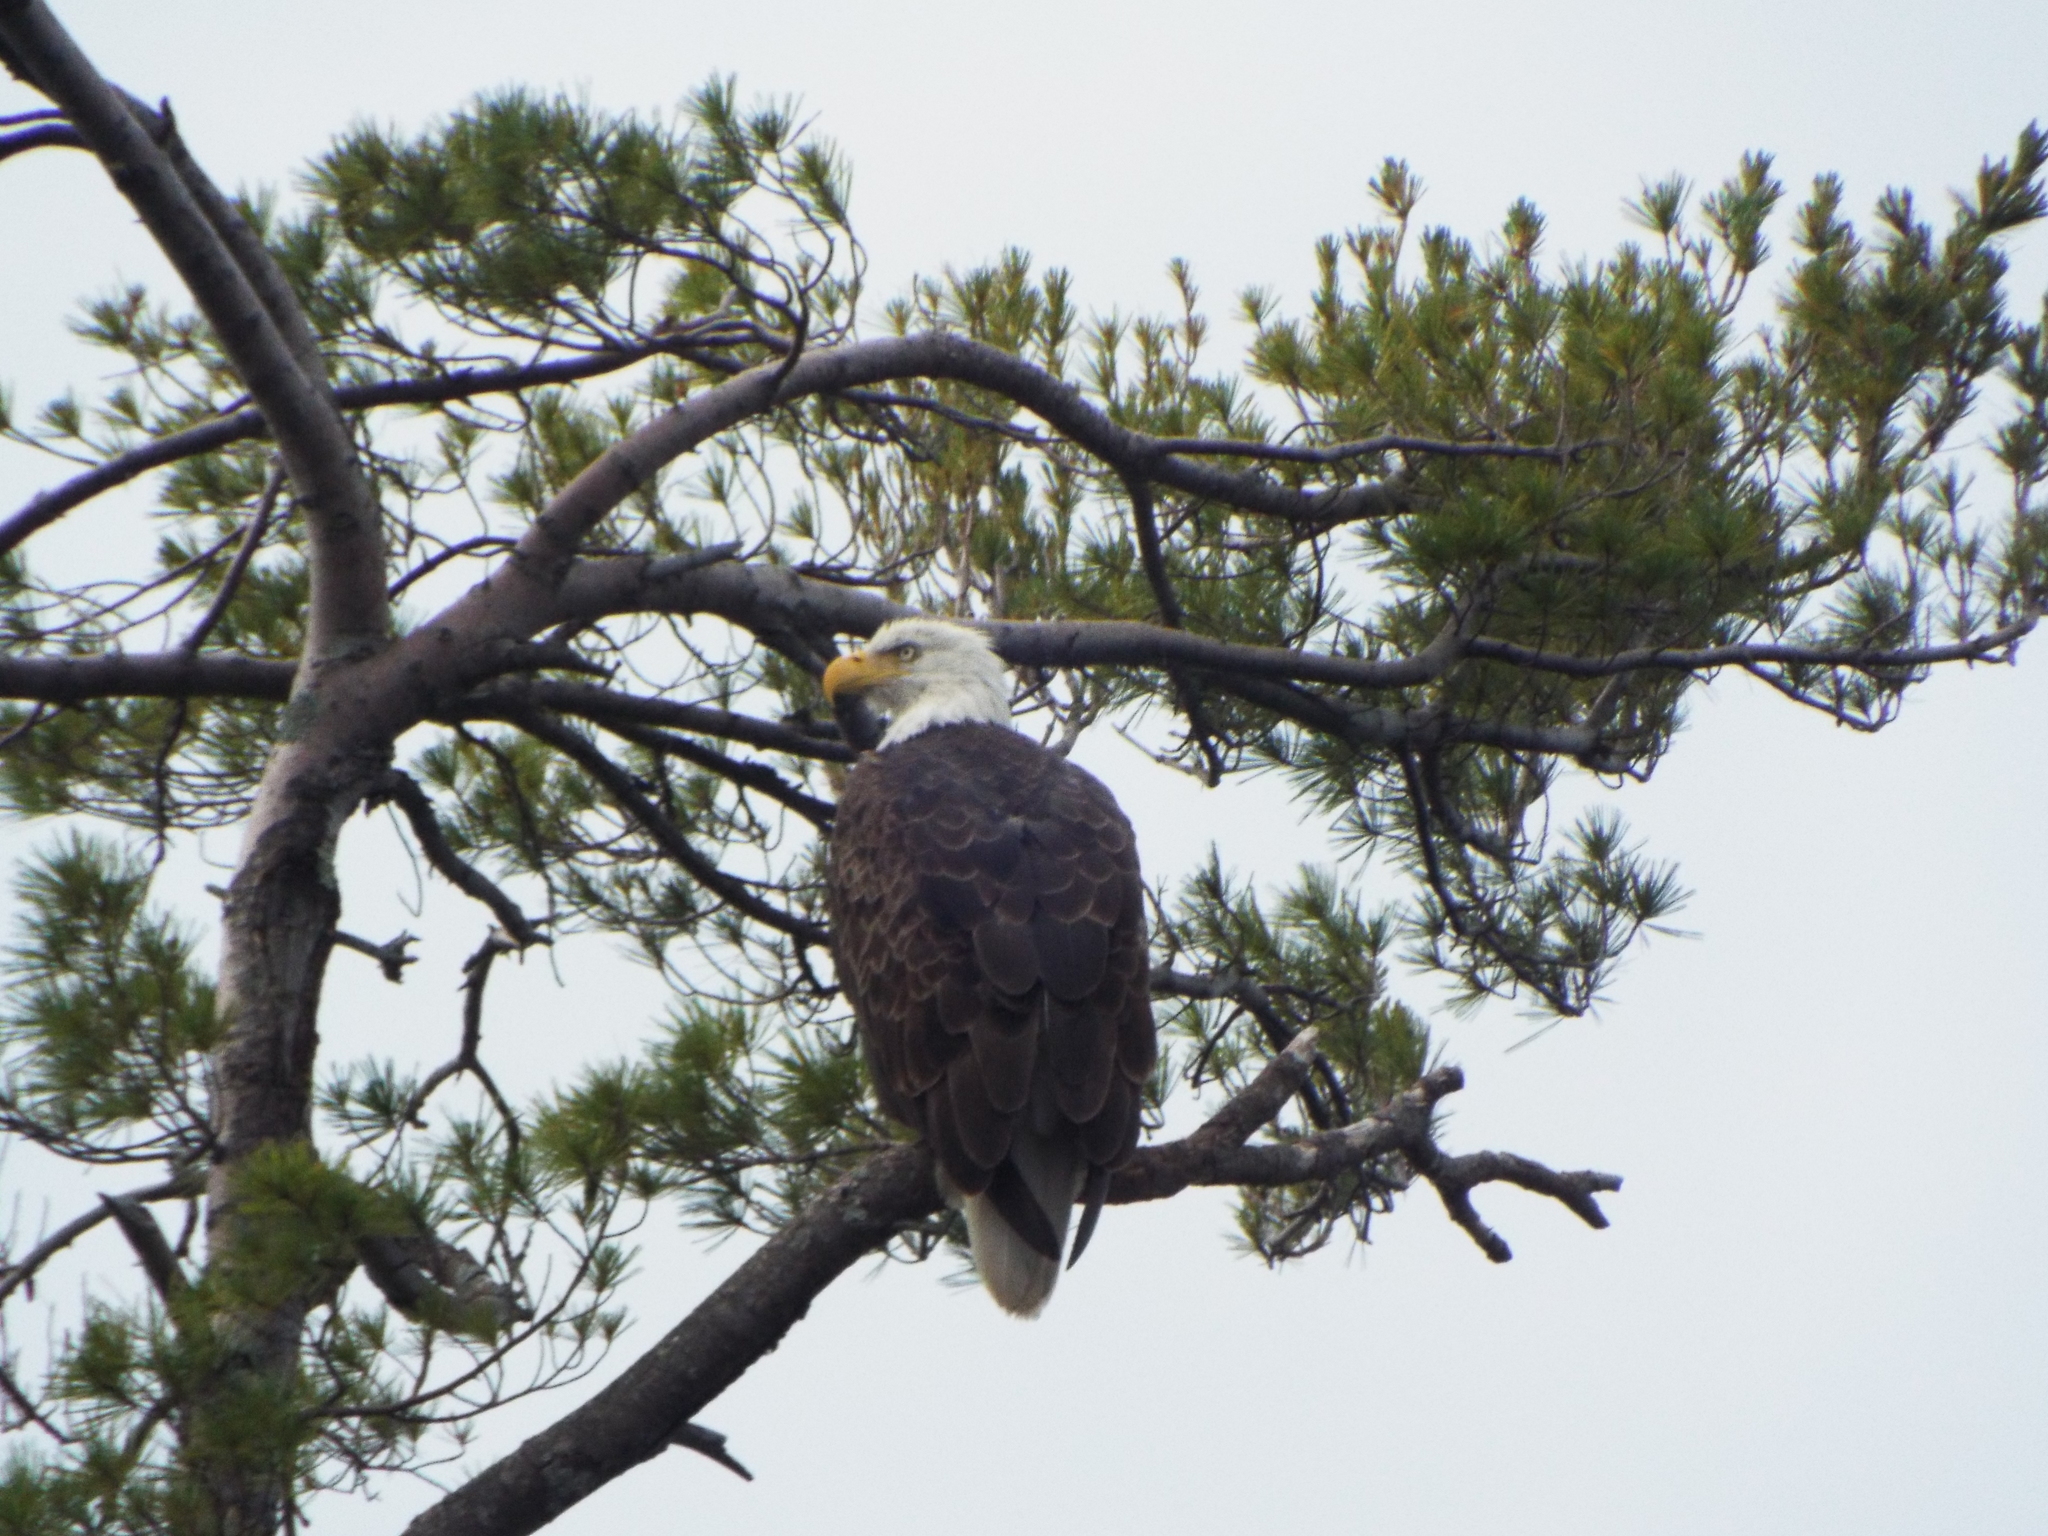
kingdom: Animalia
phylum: Chordata
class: Aves
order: Accipitriformes
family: Accipitridae
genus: Haliaeetus
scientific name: Haliaeetus leucocephalus
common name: Bald eagle
